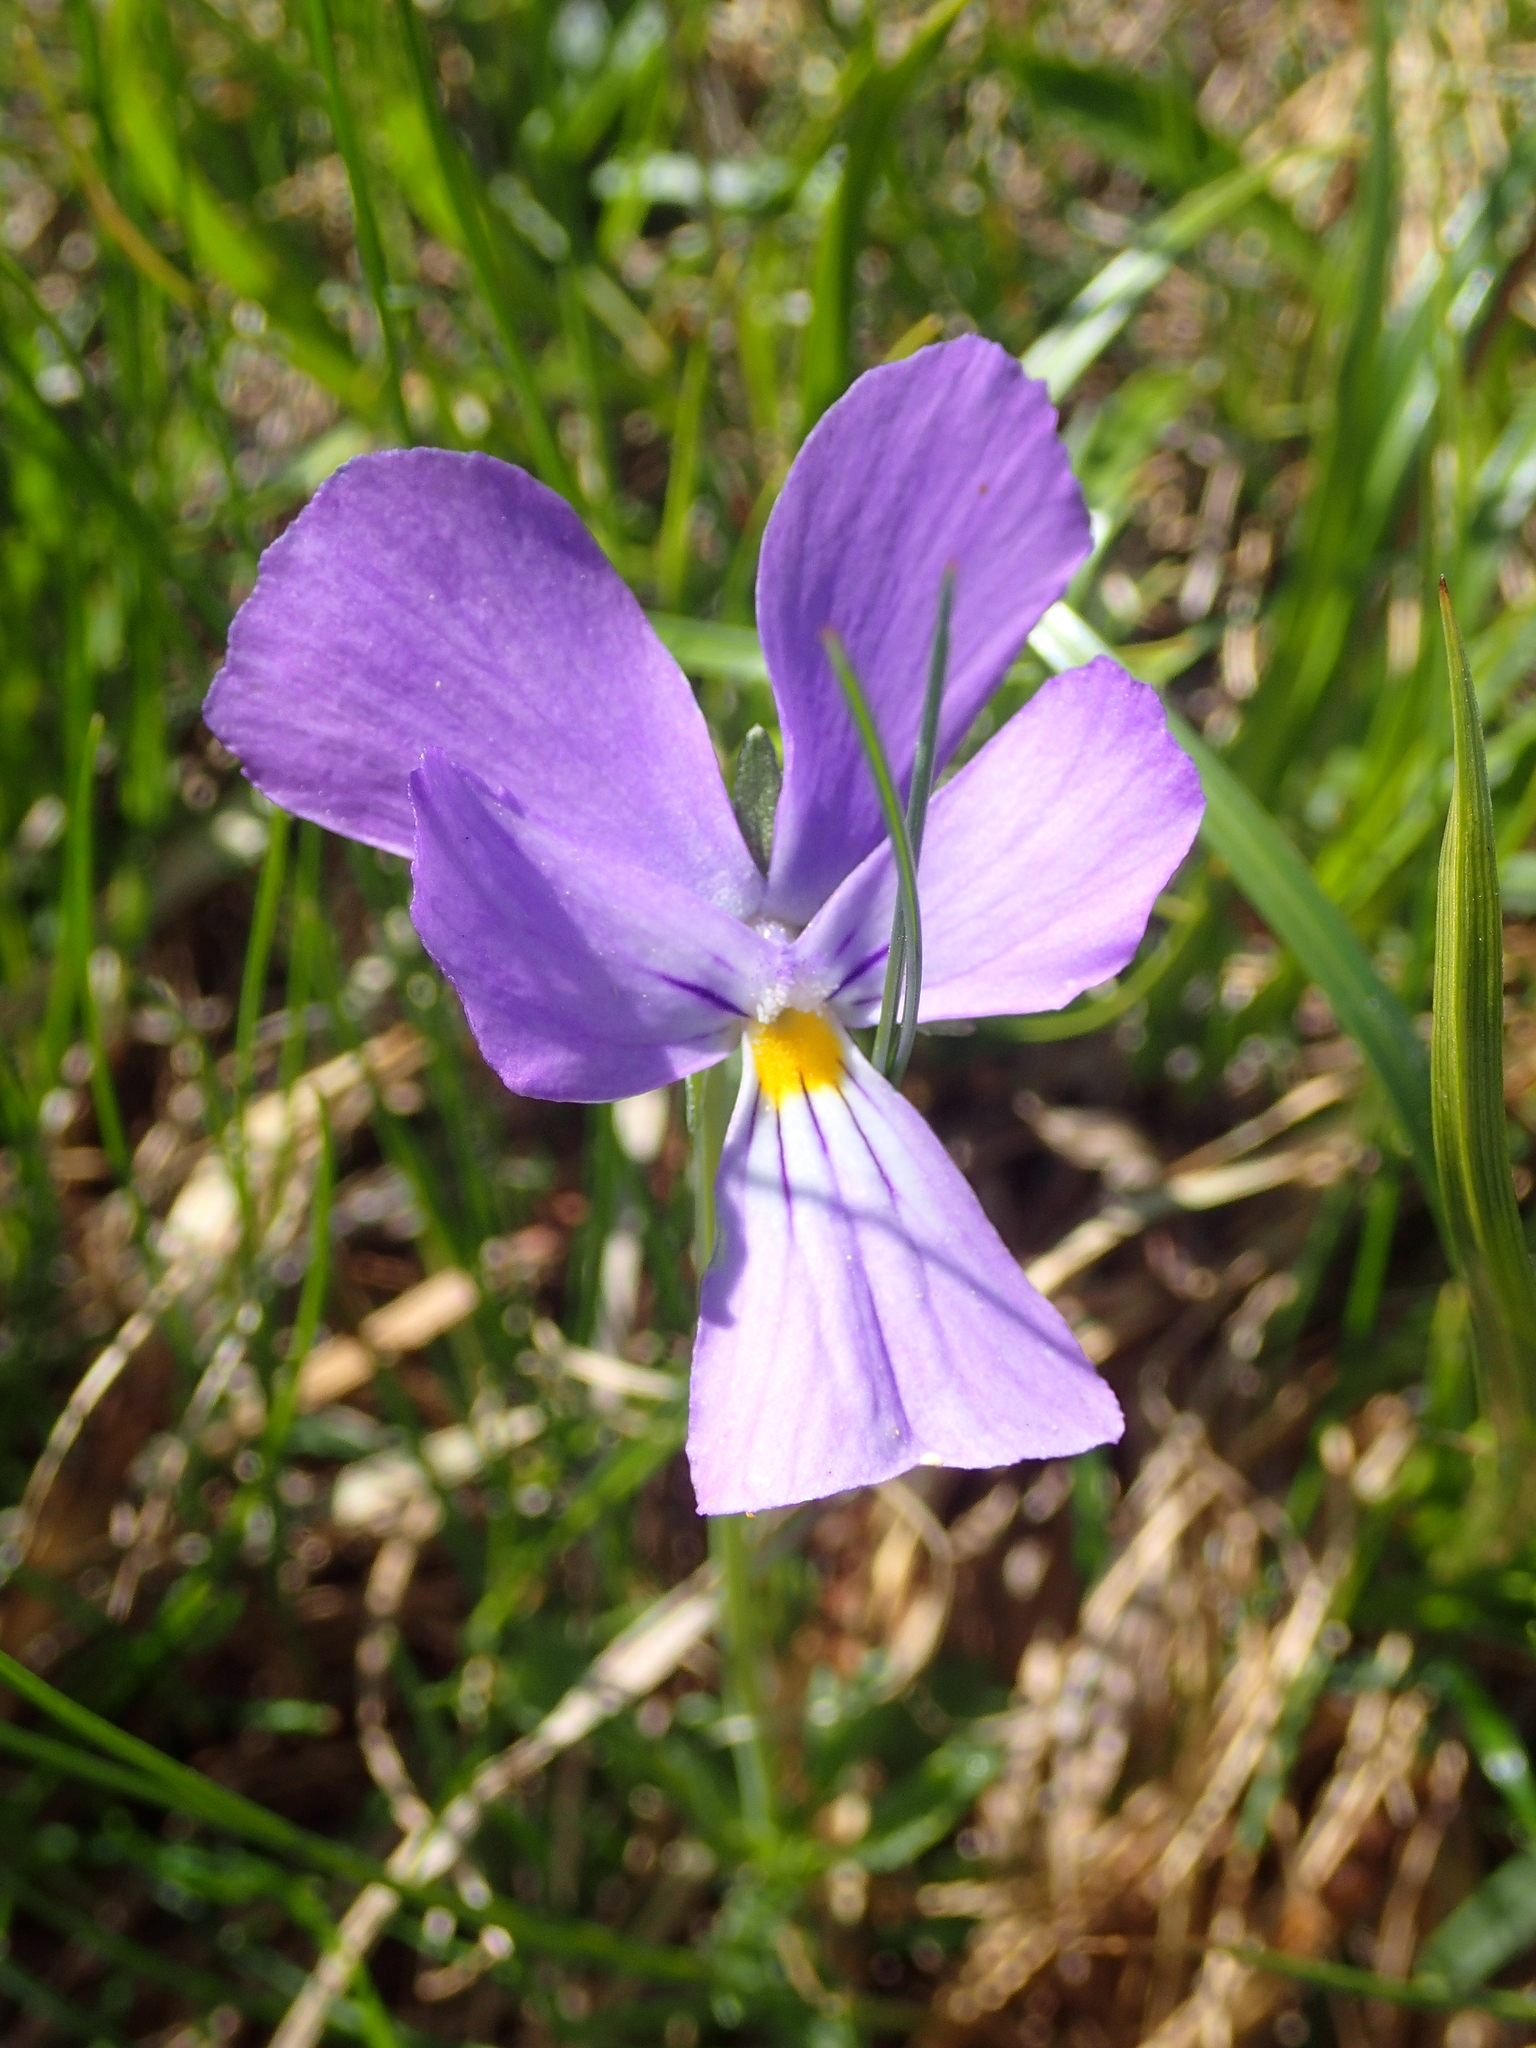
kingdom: Plantae
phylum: Tracheophyta
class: Magnoliopsida
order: Malpighiales
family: Violaceae
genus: Viola
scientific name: Viola calcarata
